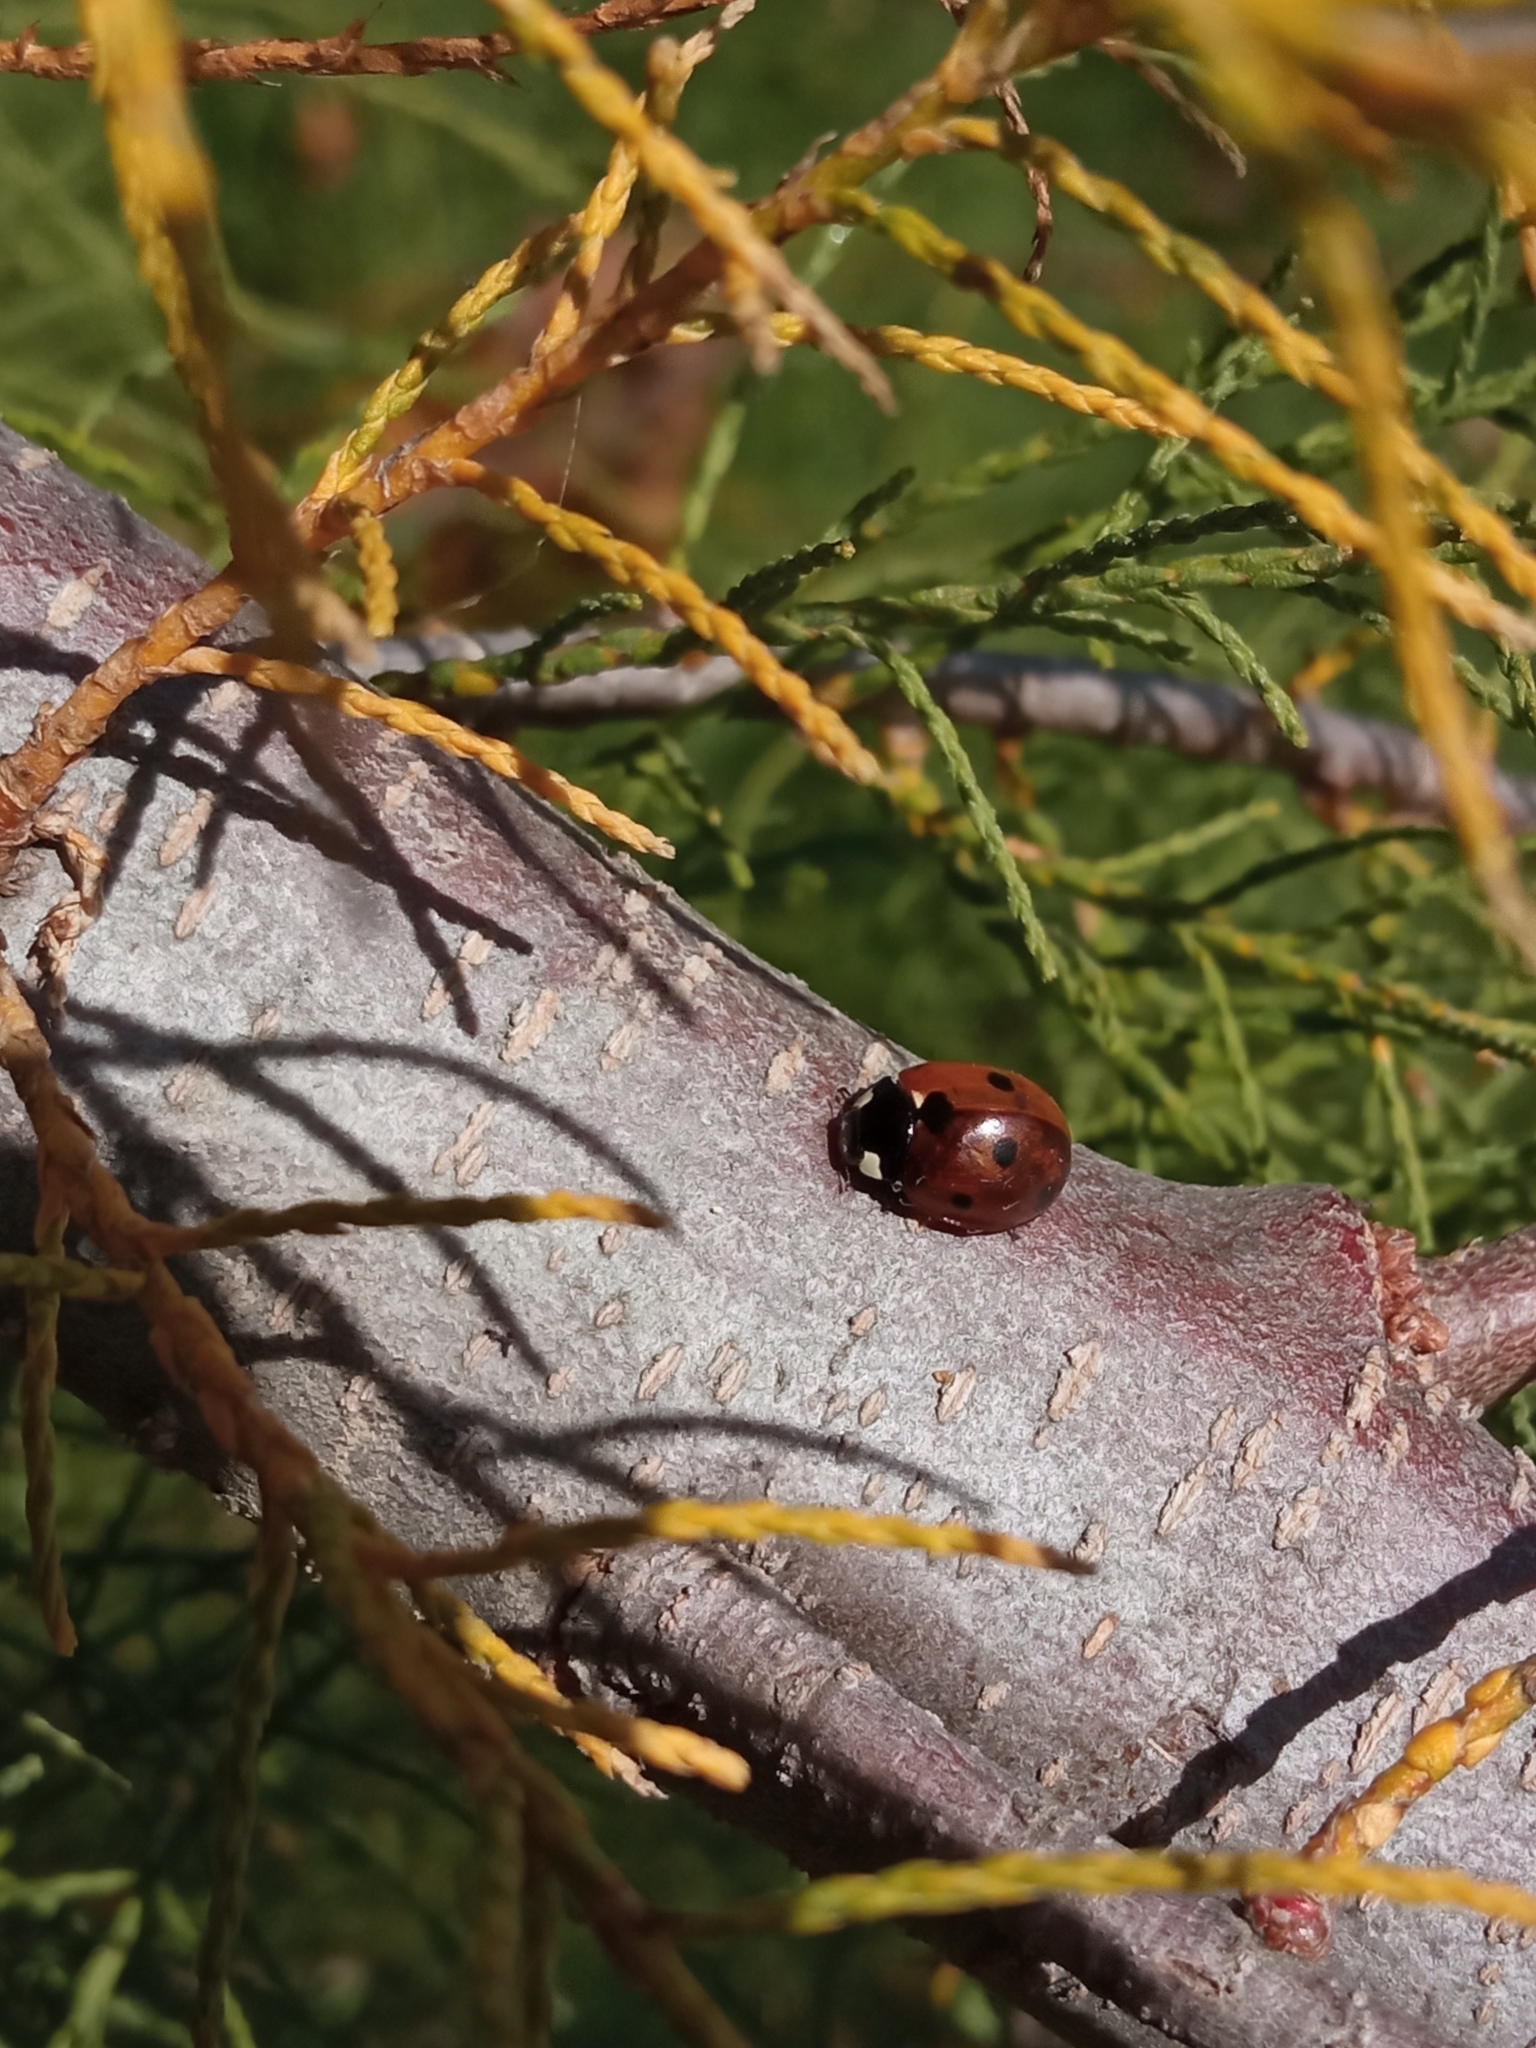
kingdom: Animalia
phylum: Arthropoda
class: Insecta
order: Coleoptera
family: Coccinellidae
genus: Coccinella
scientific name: Coccinella septempunctata
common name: Sevenspotted lady beetle
